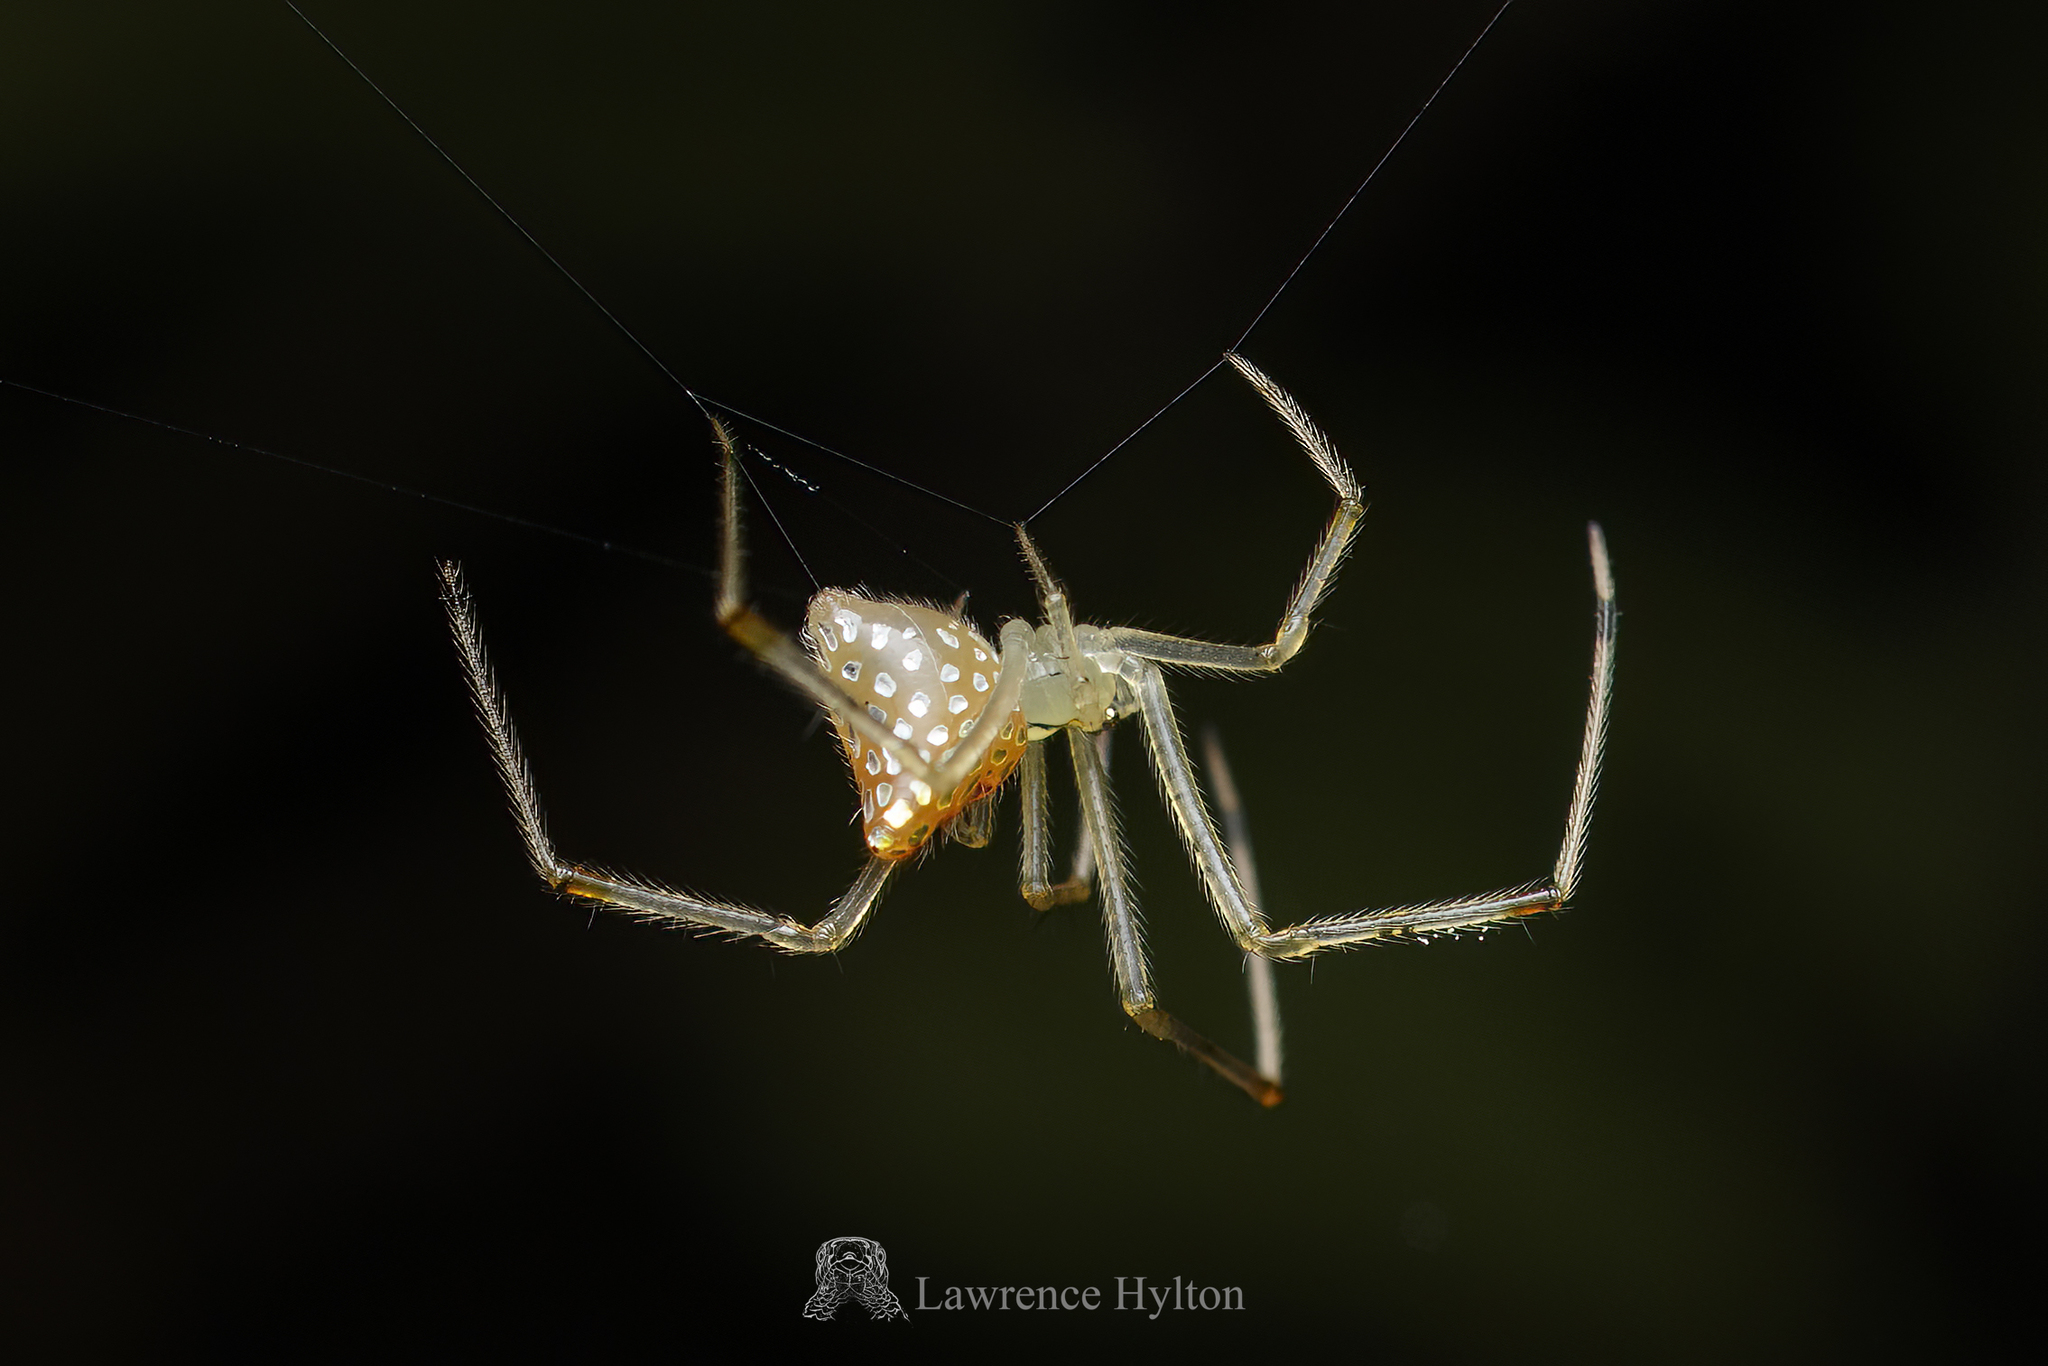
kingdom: Animalia
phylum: Arthropoda
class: Arachnida
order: Araneae
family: Theridiidae
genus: Thwaitesia
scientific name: Thwaitesia margaritifera
